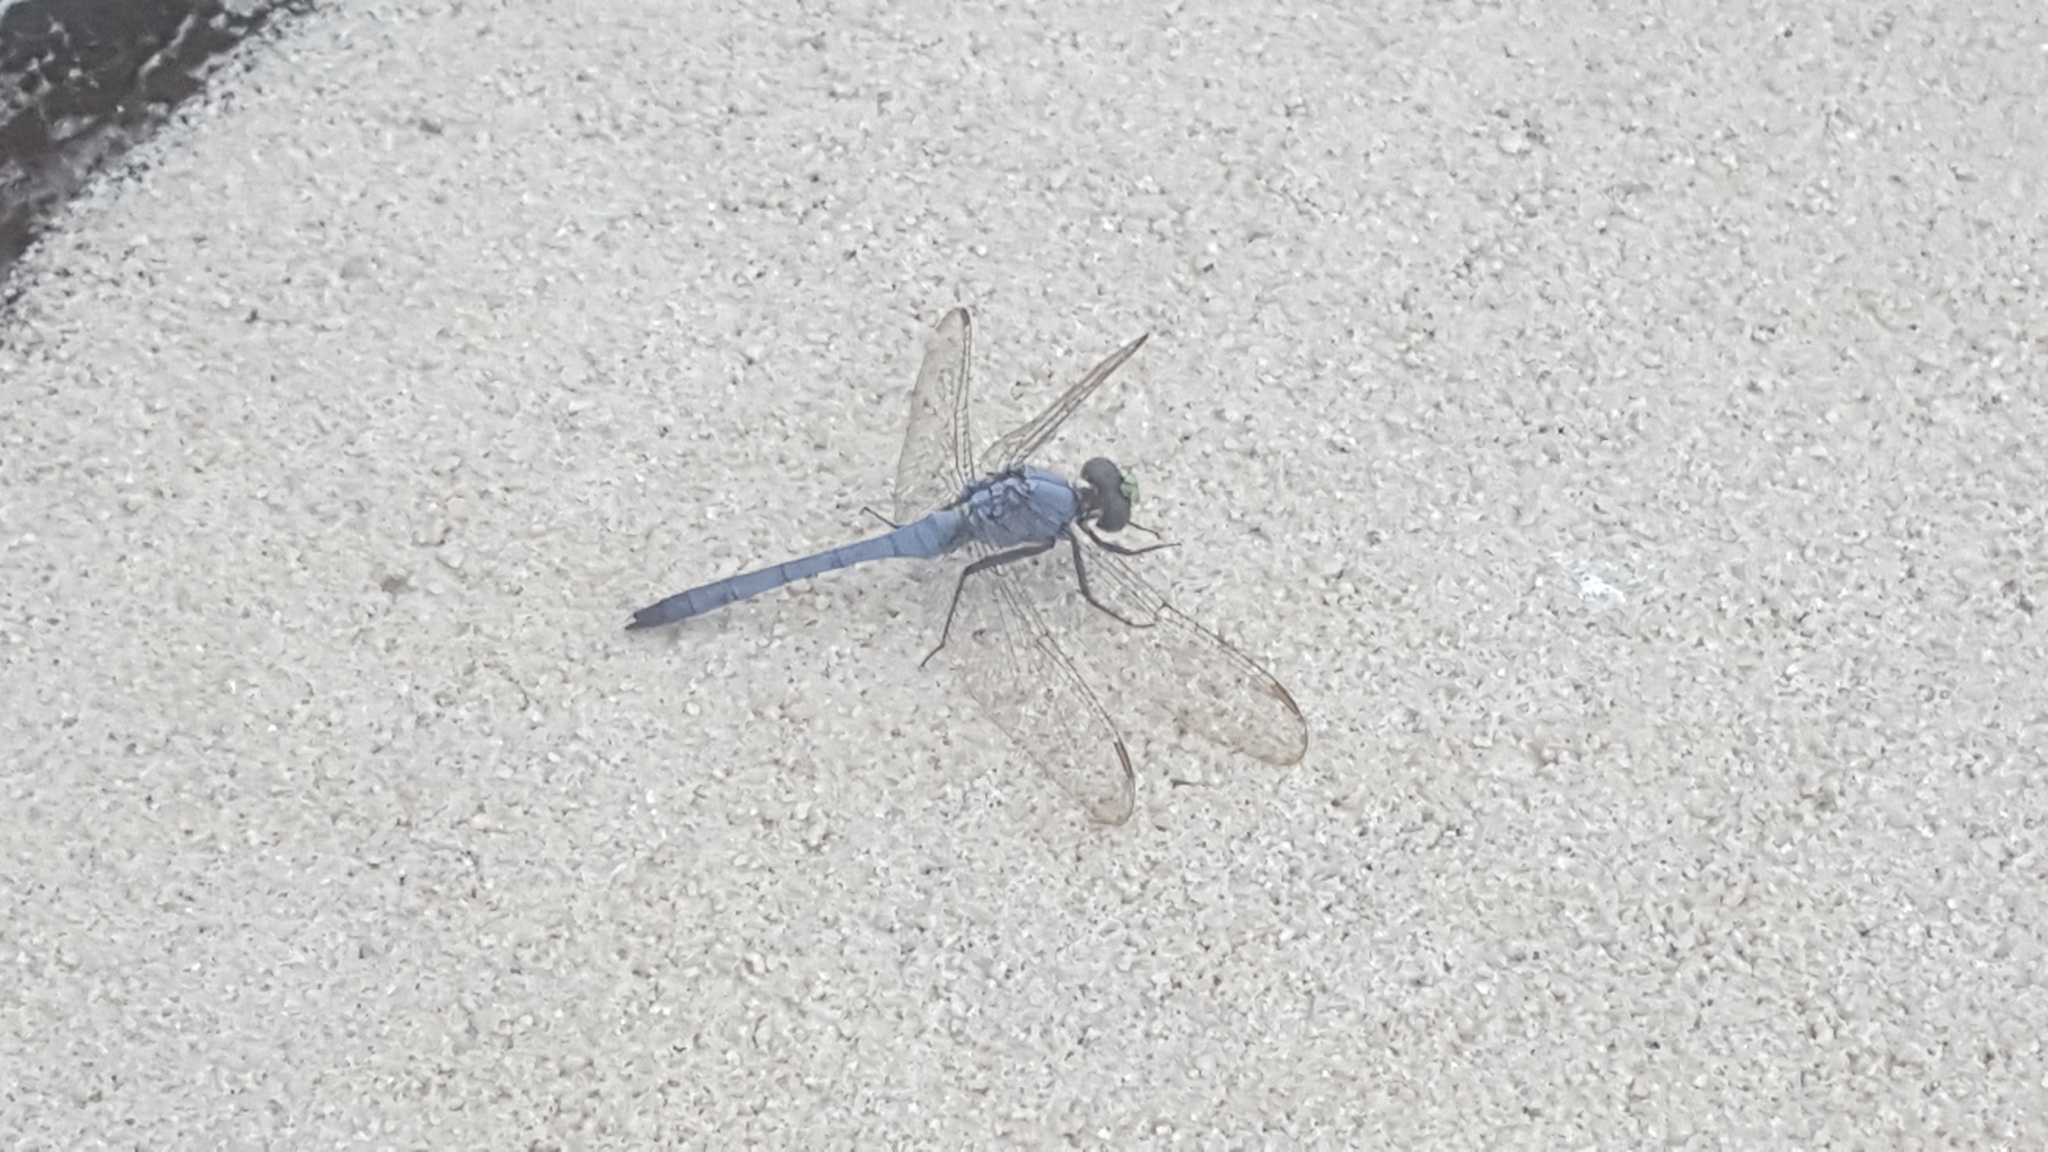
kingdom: Animalia
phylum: Arthropoda
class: Insecta
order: Odonata
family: Libellulidae
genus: Erythemis
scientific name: Erythemis simplicicollis
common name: Eastern pondhawk
